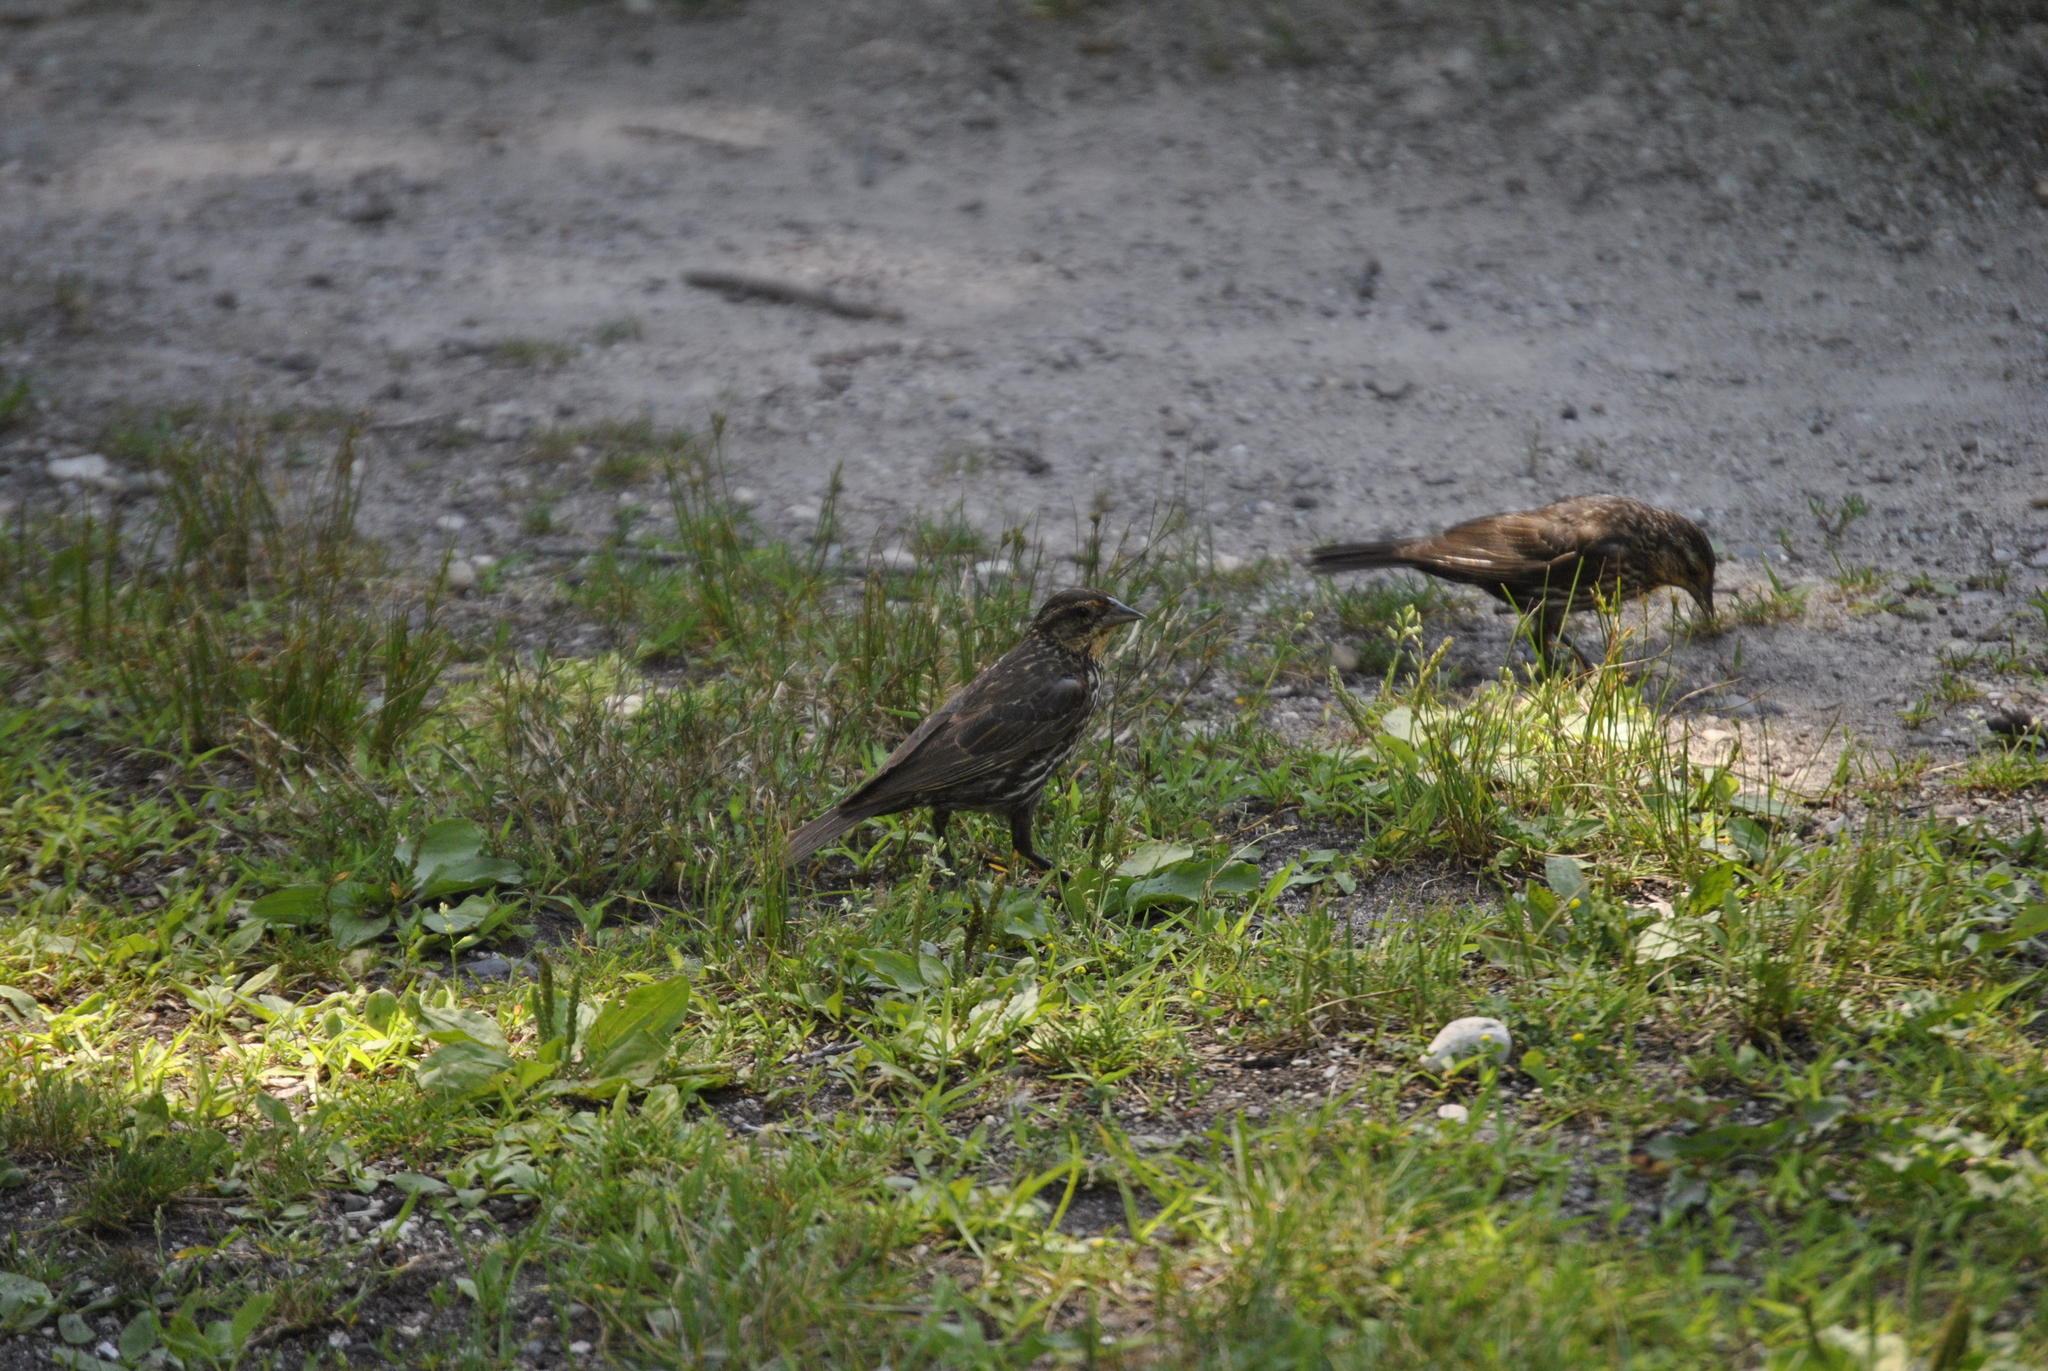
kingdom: Animalia
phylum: Chordata
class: Aves
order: Passeriformes
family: Icteridae
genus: Agelaius
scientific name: Agelaius phoeniceus
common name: Red-winged blackbird
